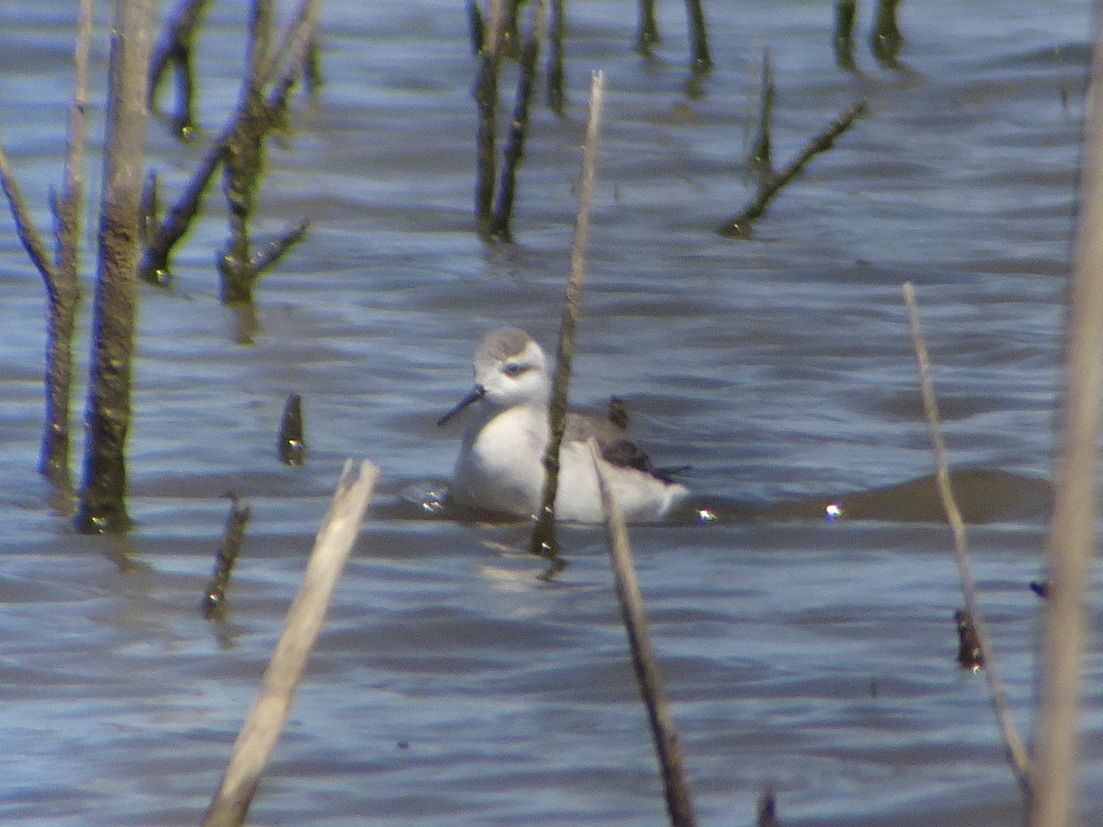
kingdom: Animalia
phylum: Chordata
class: Aves
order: Charadriiformes
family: Scolopacidae
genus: Phalaropus
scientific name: Phalaropus tricolor
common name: Wilson's phalarope
